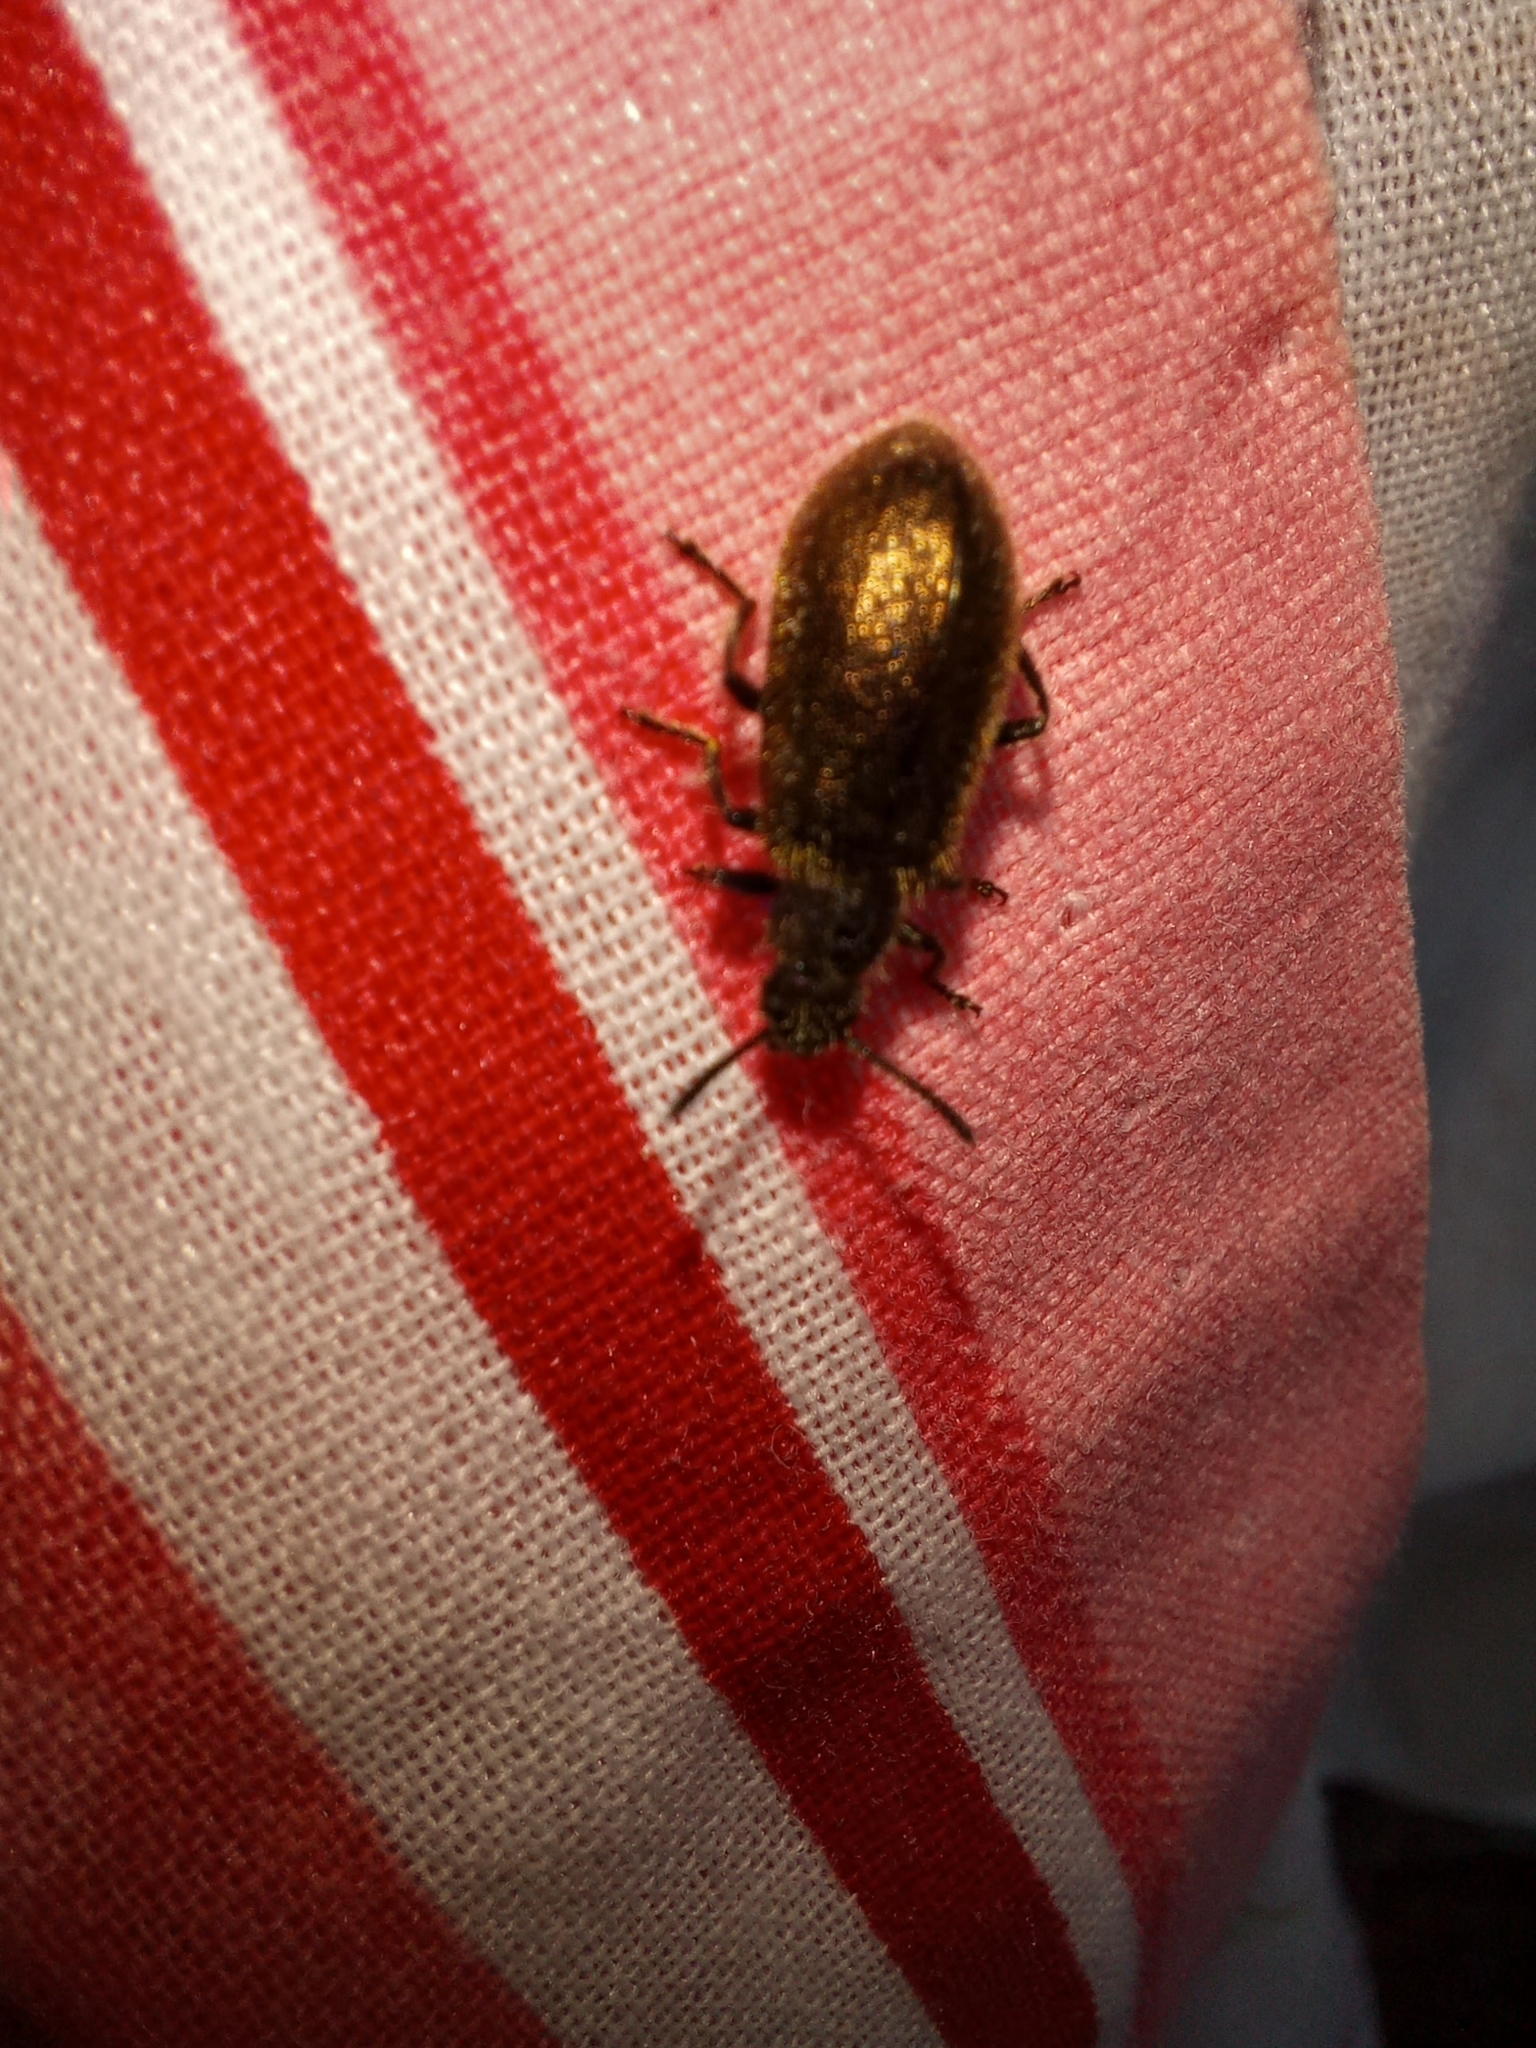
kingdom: Animalia
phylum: Arthropoda
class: Insecta
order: Coleoptera
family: Tenebrionidae
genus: Lagria
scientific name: Lagria villosa
